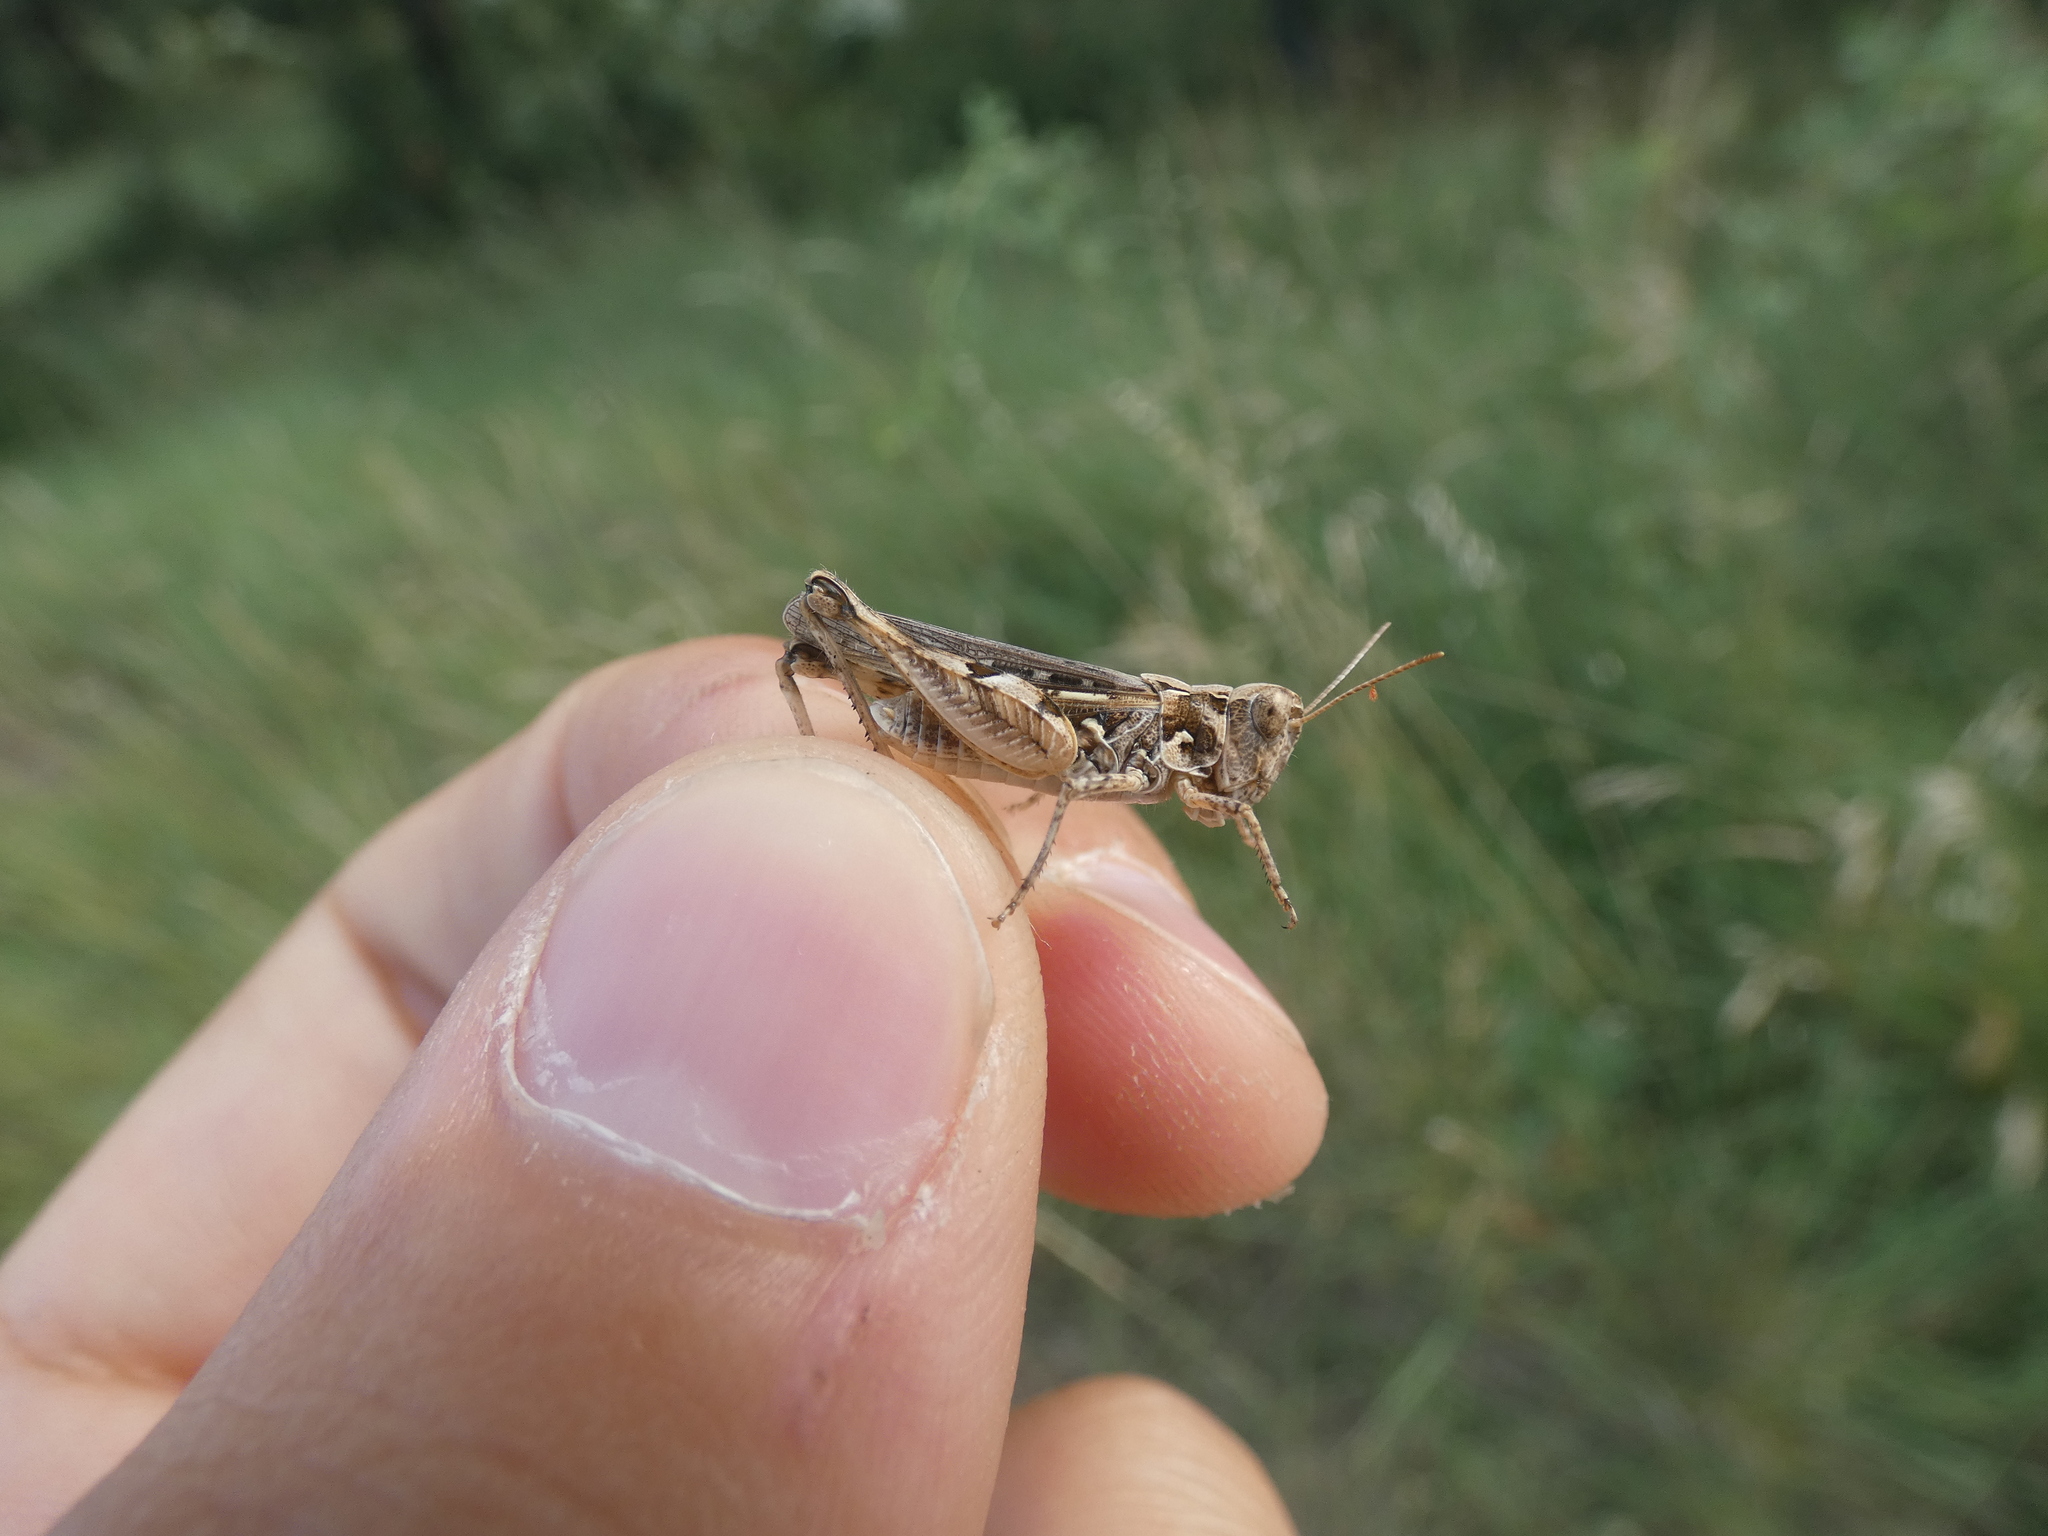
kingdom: Animalia
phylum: Arthropoda
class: Insecta
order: Orthoptera
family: Acrididae
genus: Dociostaurus
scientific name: Dociostaurus jagoi
